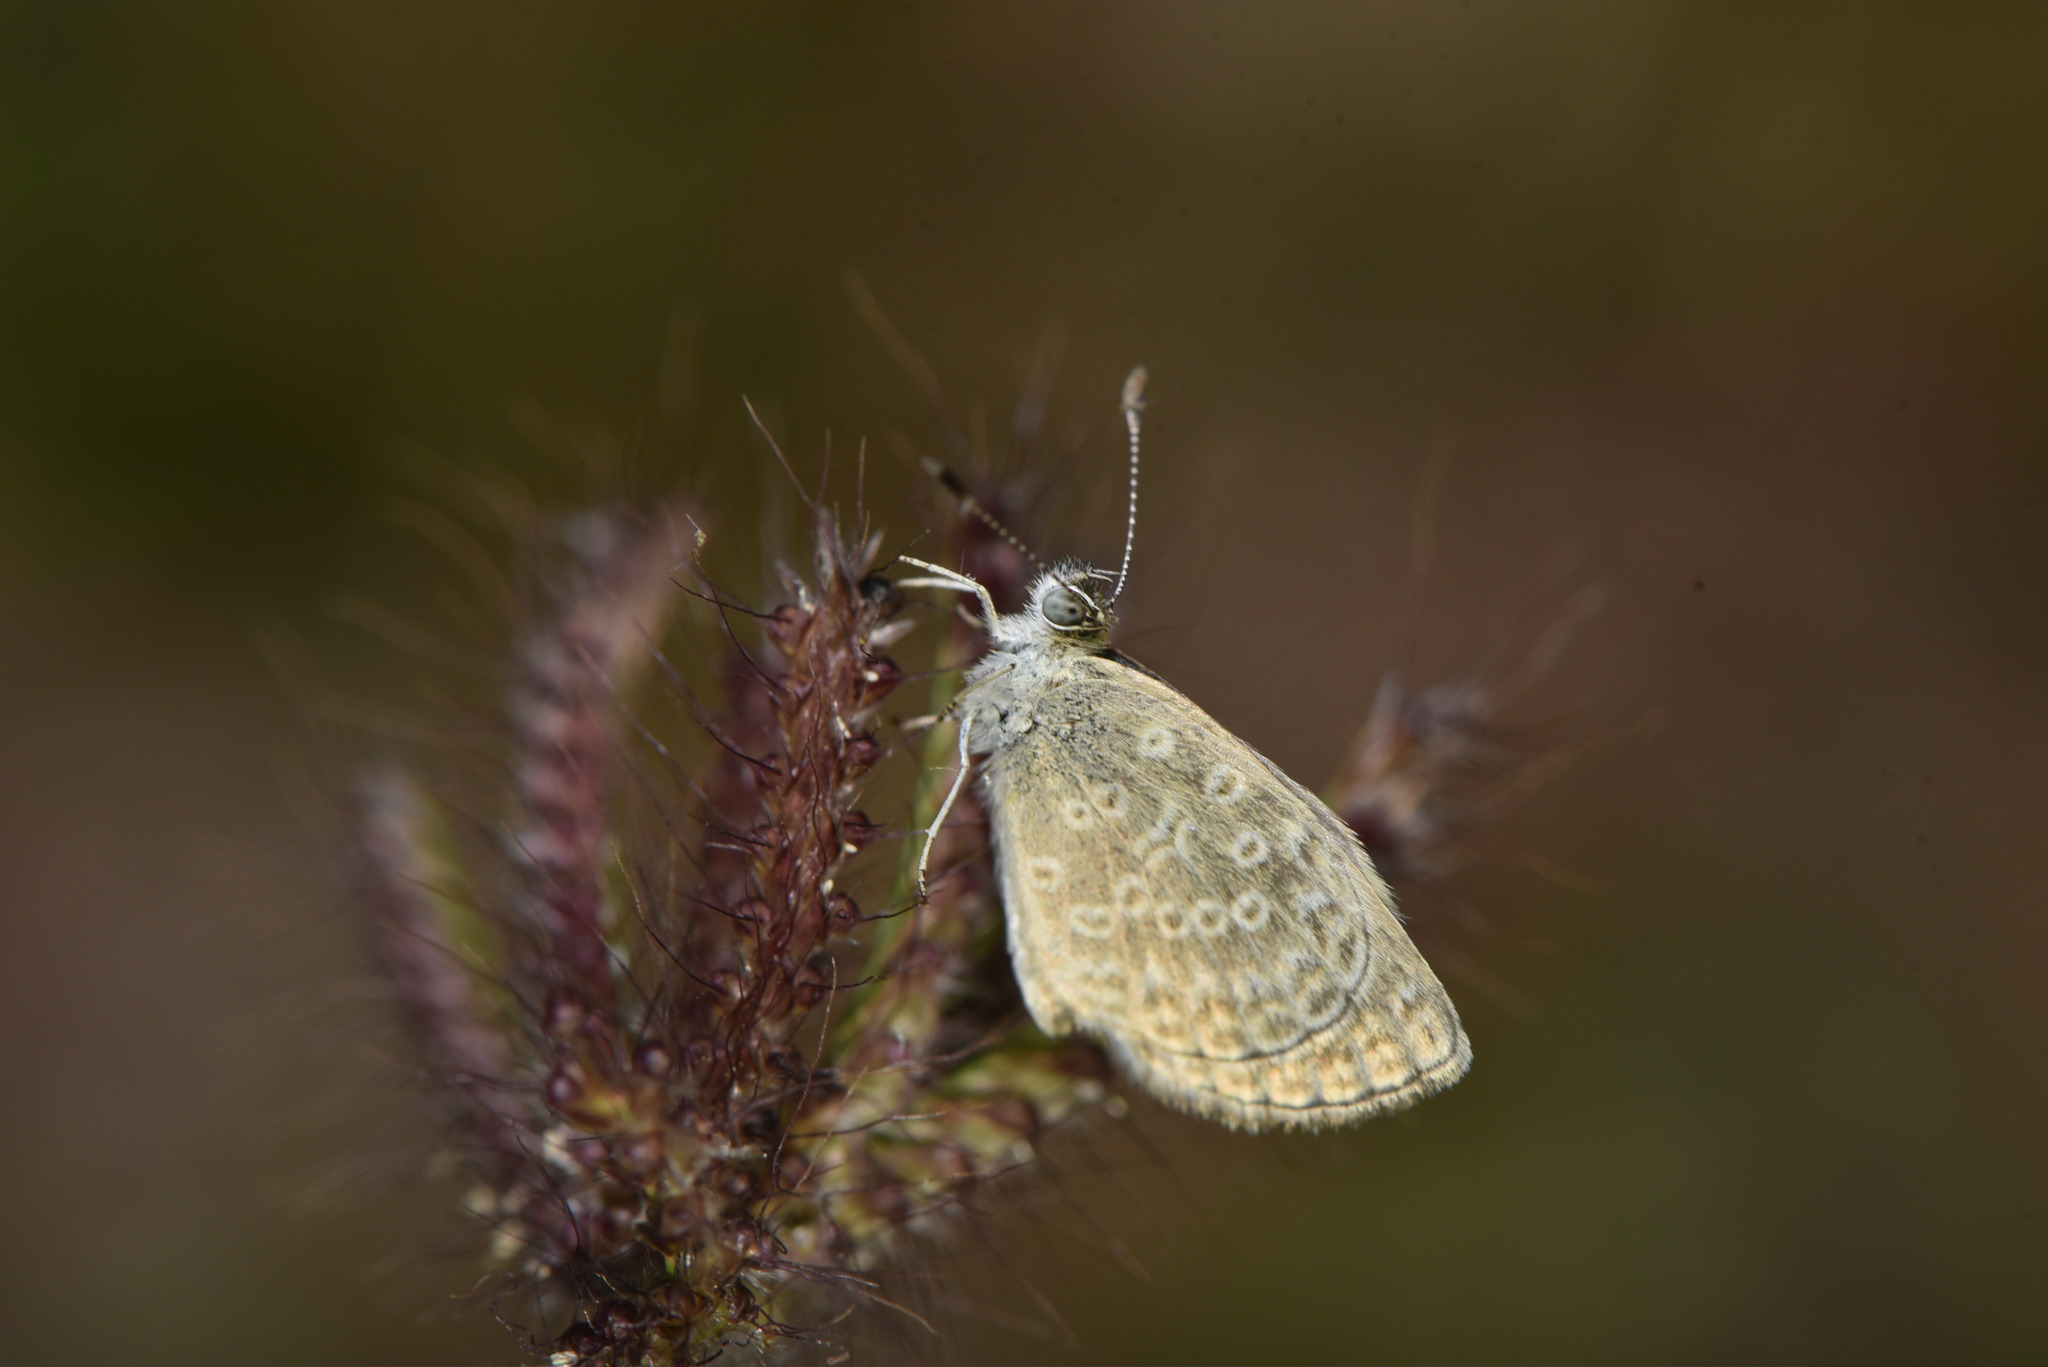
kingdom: Animalia
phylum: Arthropoda
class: Insecta
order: Lepidoptera
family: Lycaenidae
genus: Pseudozizeeria
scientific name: Pseudozizeeria maha
